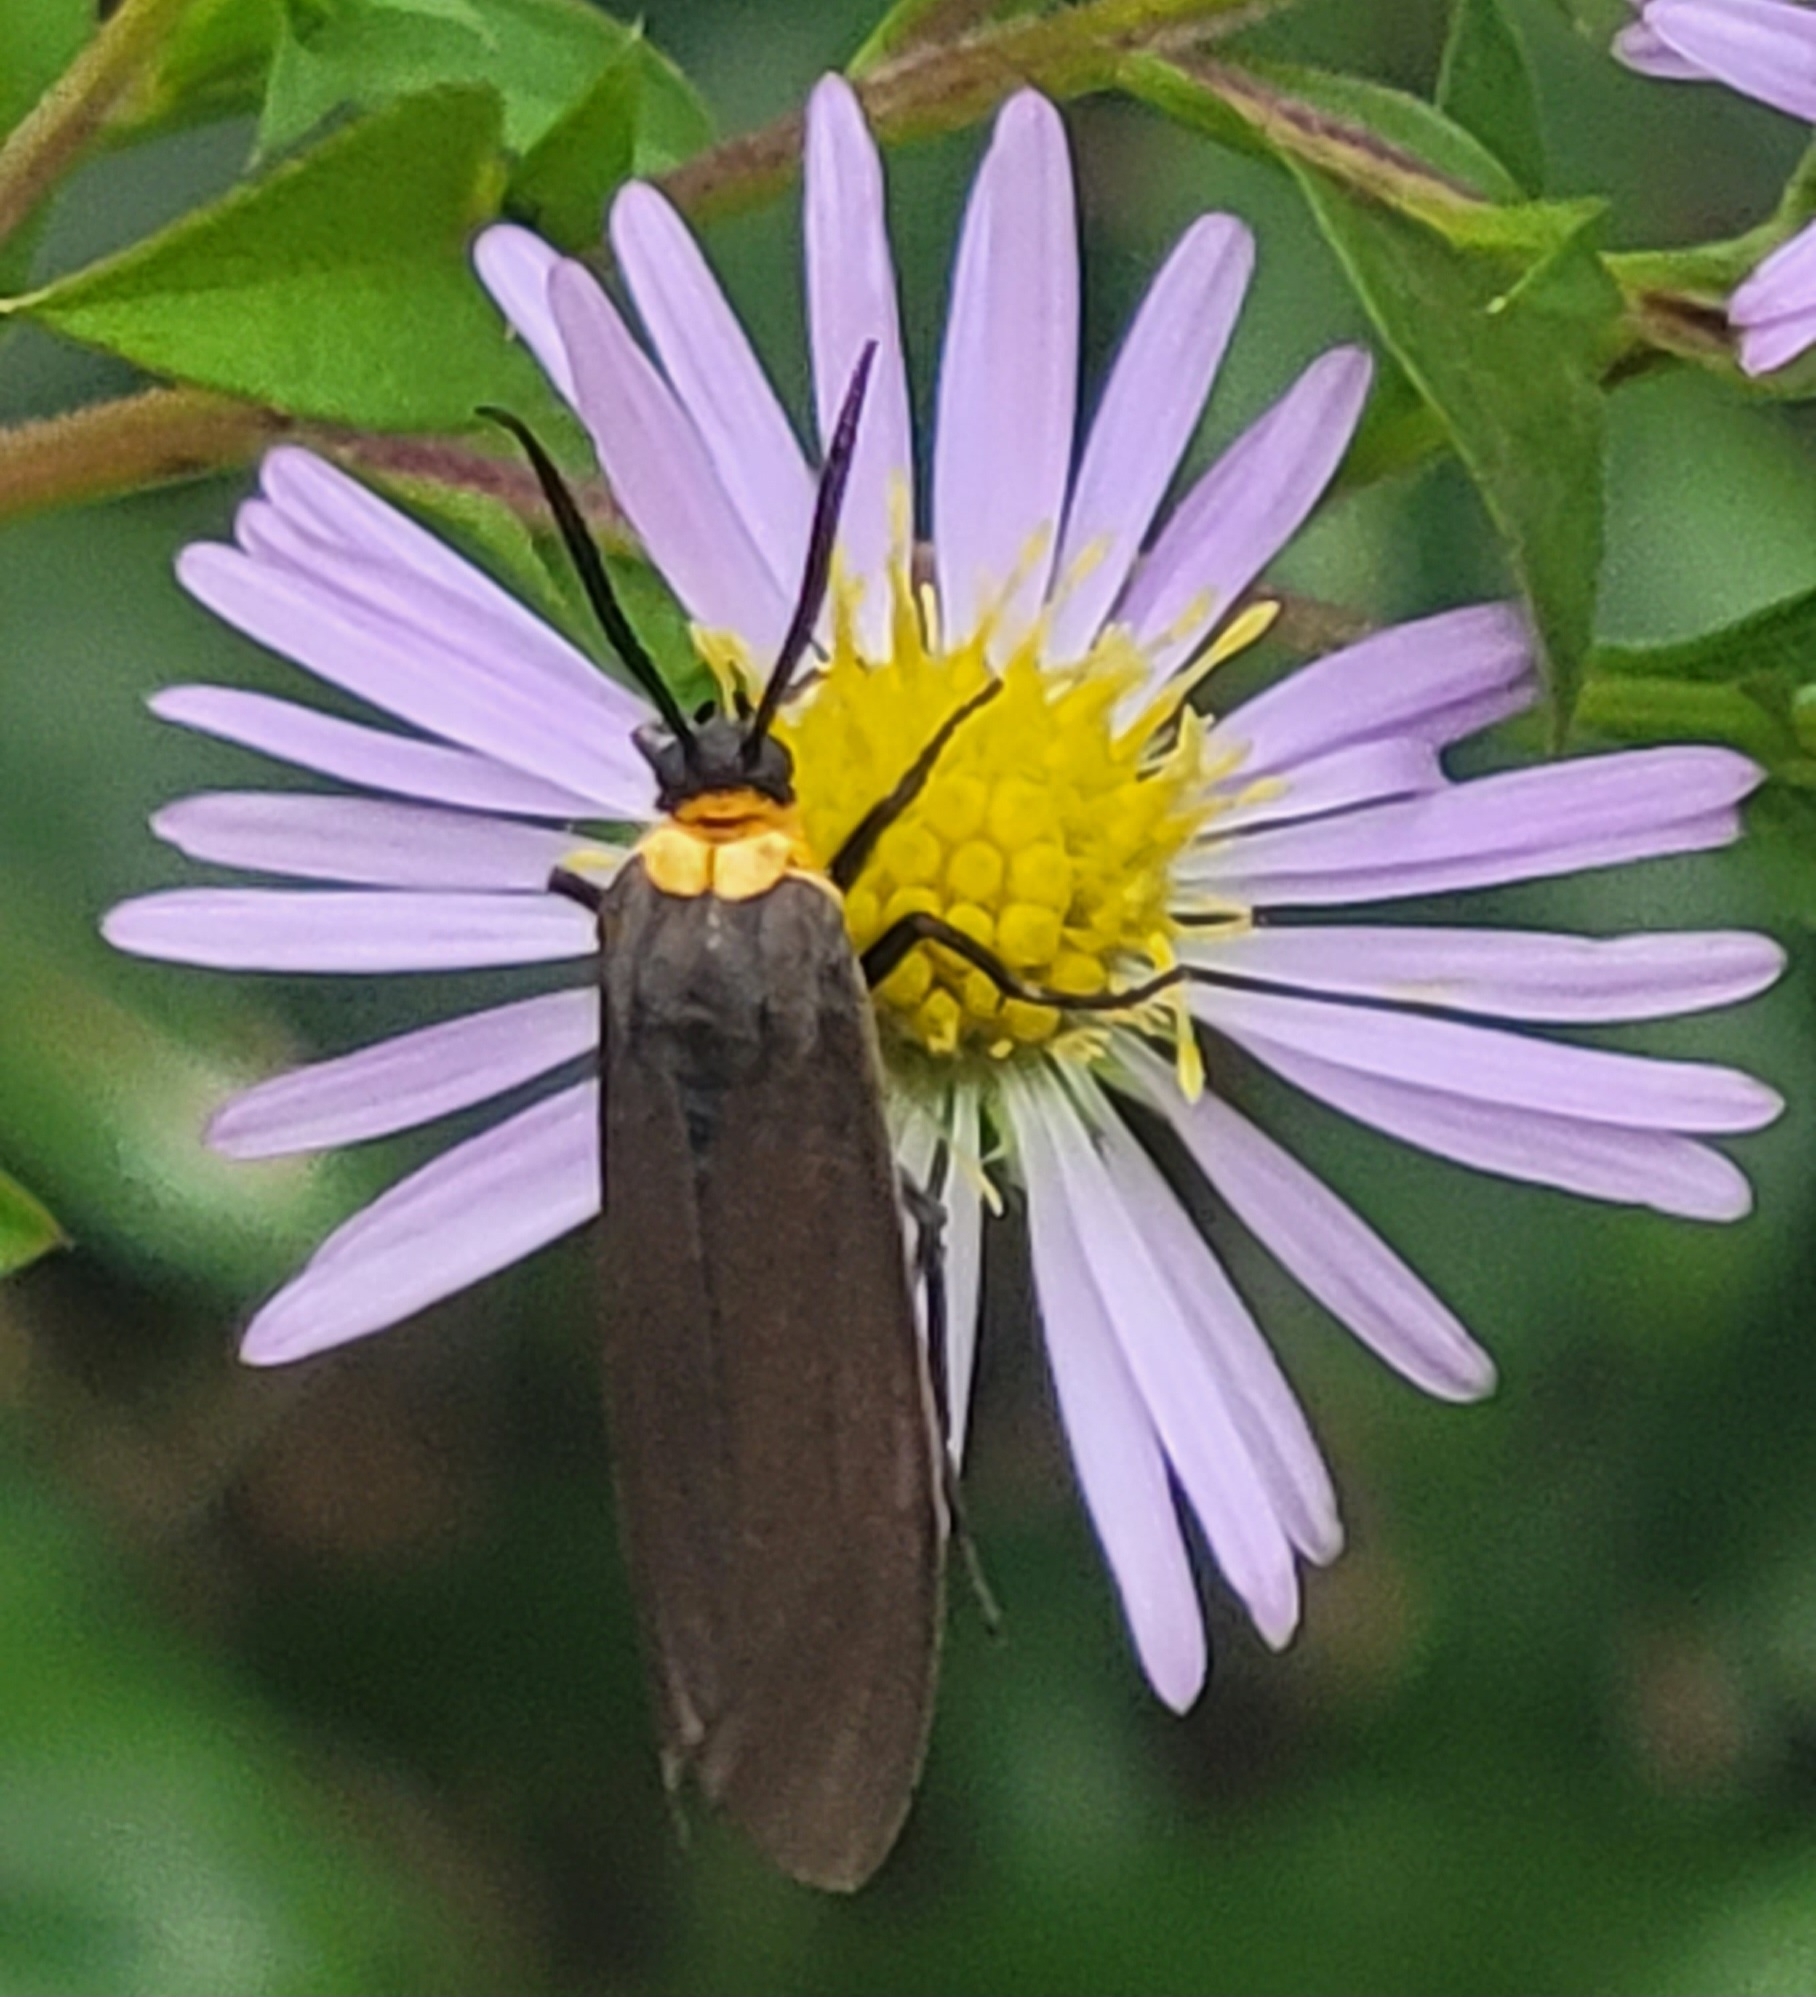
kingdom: Animalia
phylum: Arthropoda
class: Insecta
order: Lepidoptera
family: Erebidae
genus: Cisseps
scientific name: Cisseps fulvicollis
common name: Yellow-collared scape moth
